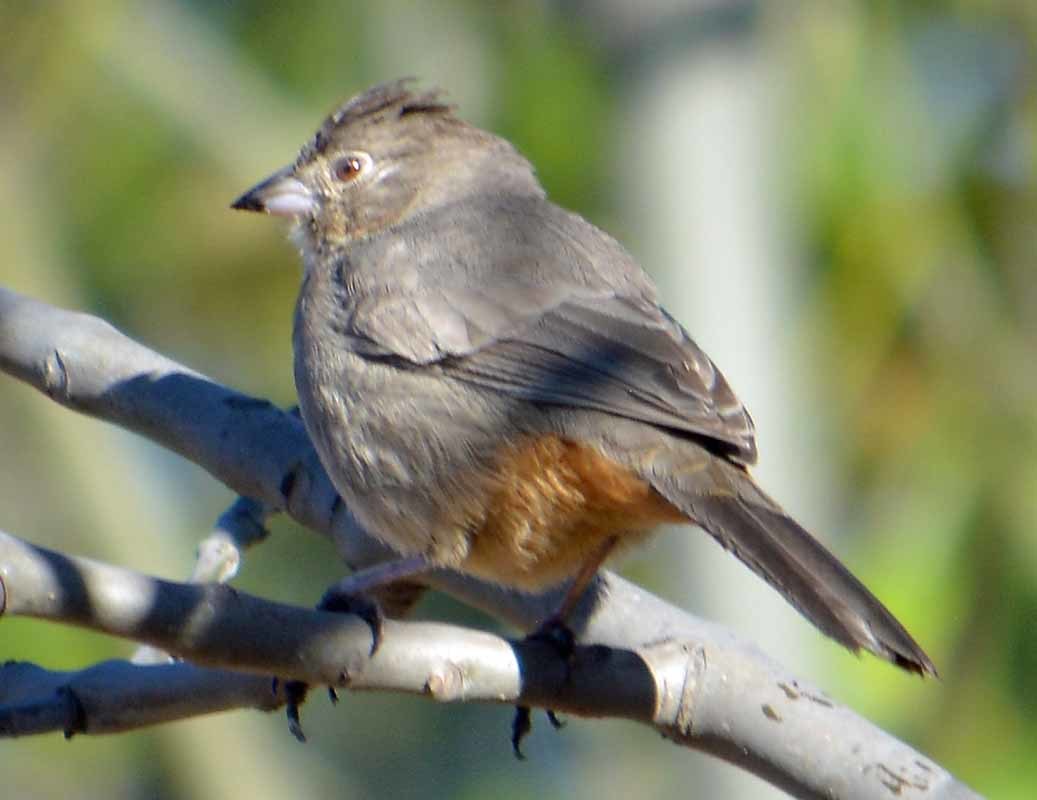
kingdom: Animalia
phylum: Chordata
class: Aves
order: Passeriformes
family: Passerellidae
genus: Melozone
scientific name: Melozone fusca
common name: Canyon towhee
